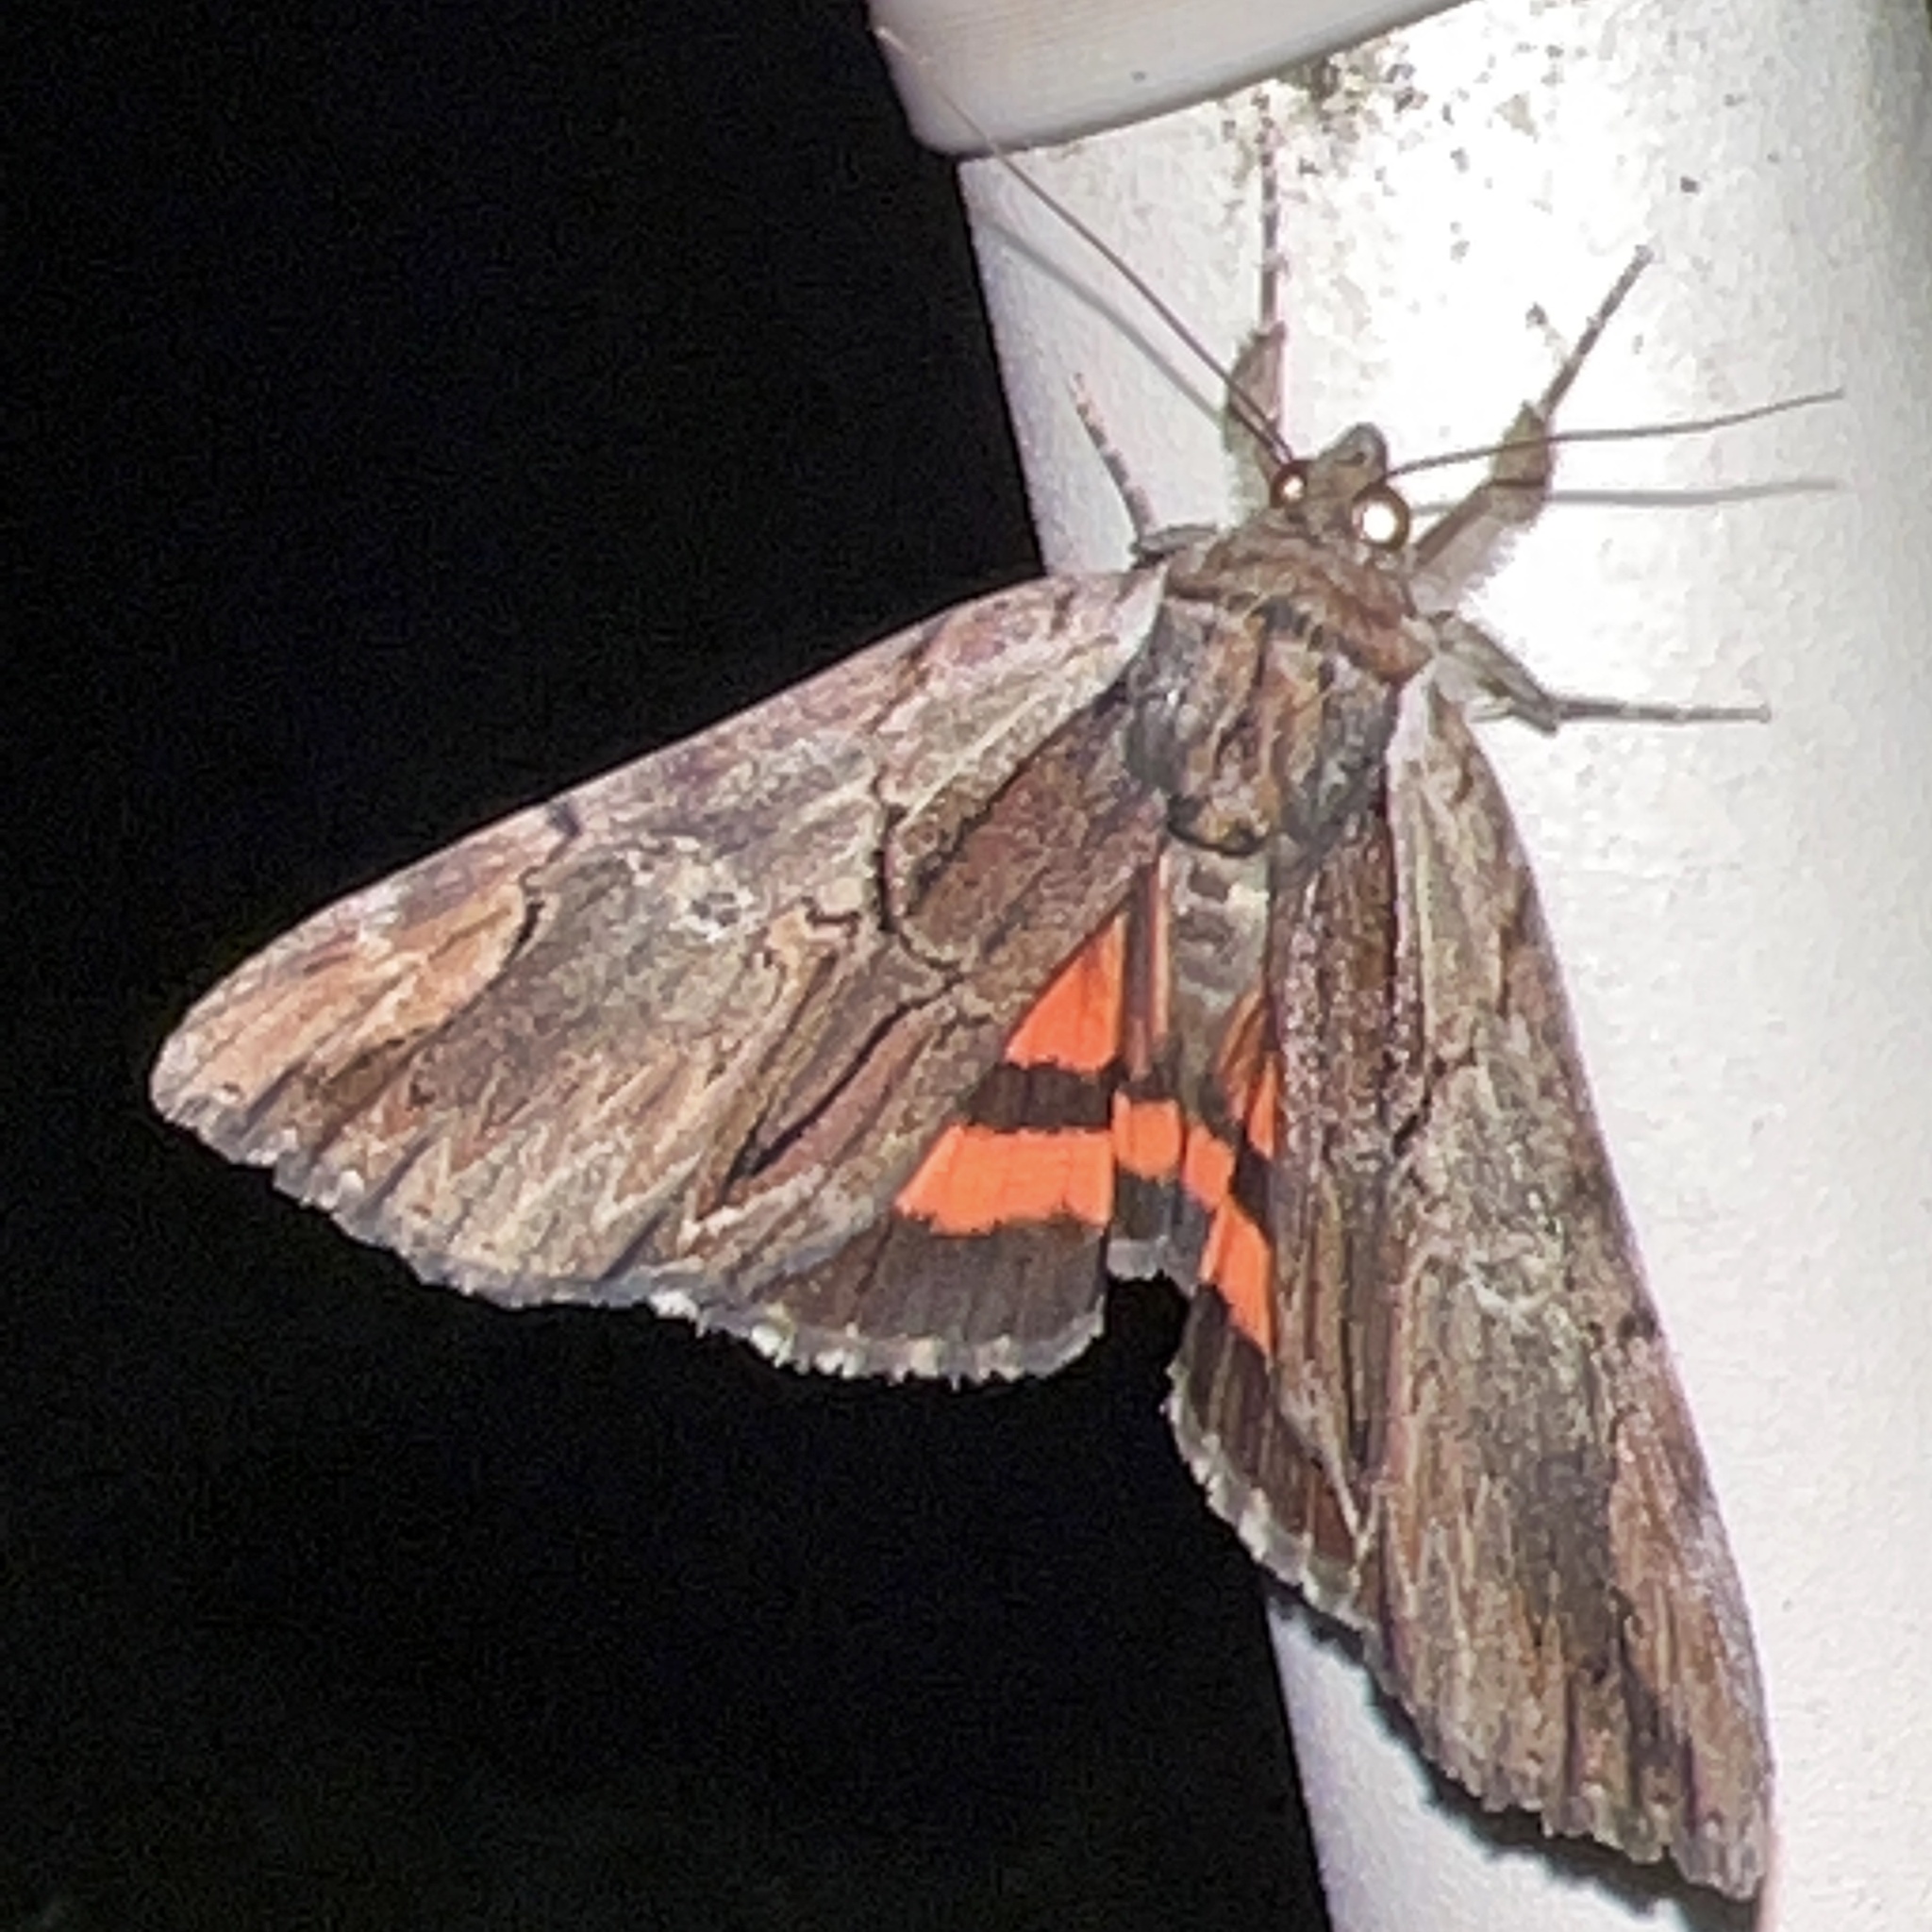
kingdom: Animalia
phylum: Arthropoda
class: Insecta
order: Lepidoptera
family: Erebidae
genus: Catocala
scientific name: Catocala ultronia
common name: Ultronia underwing
